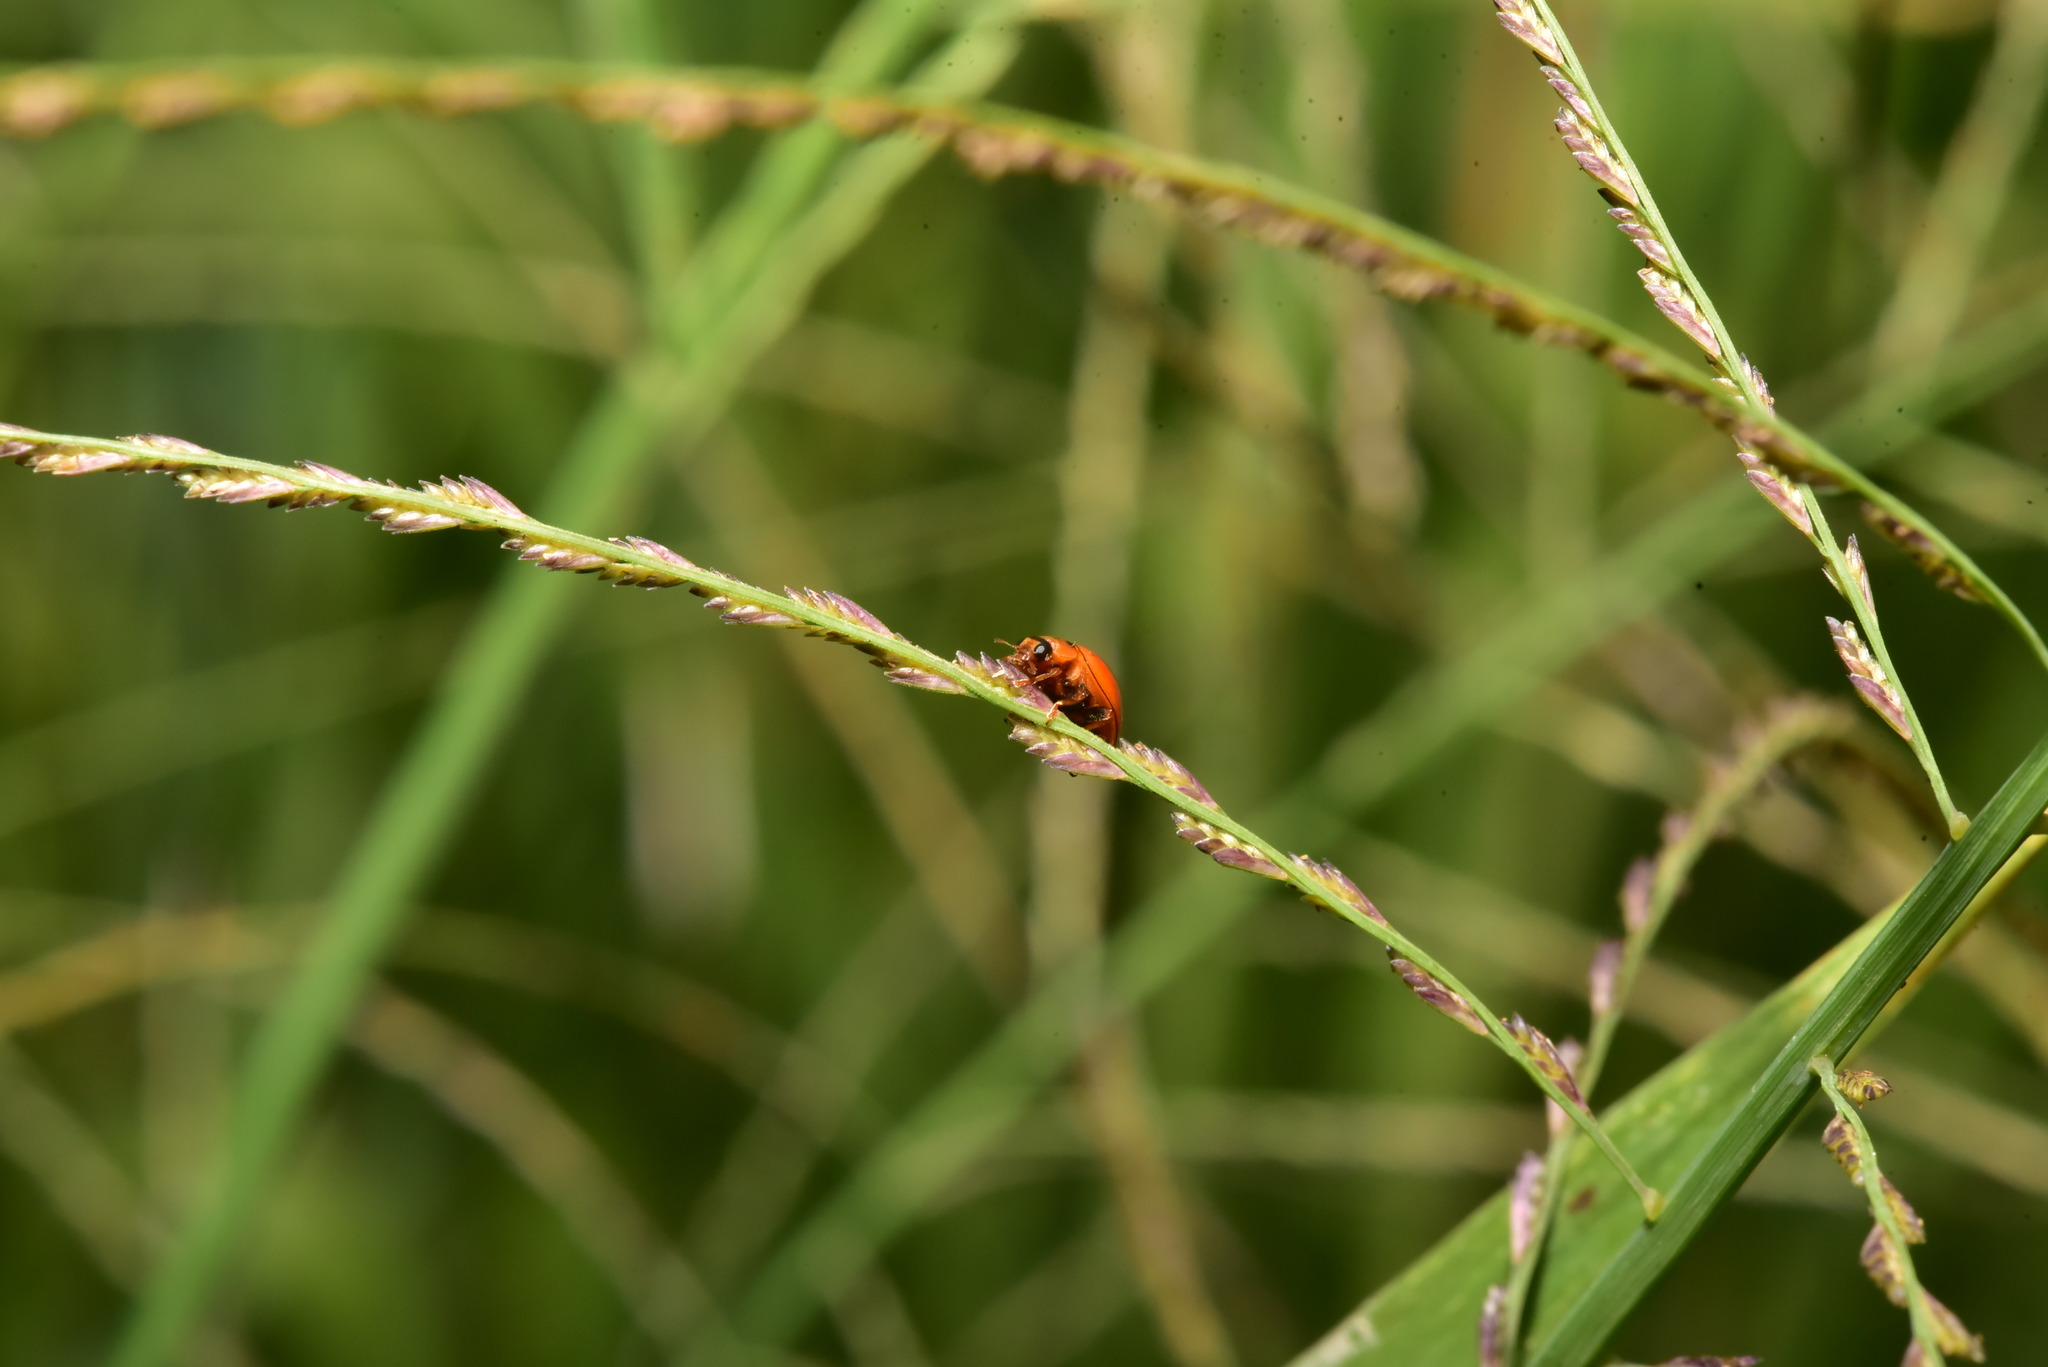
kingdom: Animalia
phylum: Arthropoda
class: Insecta
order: Coleoptera
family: Coccinellidae
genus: Micraspis
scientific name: Micraspis discolor
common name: Lady beetle
